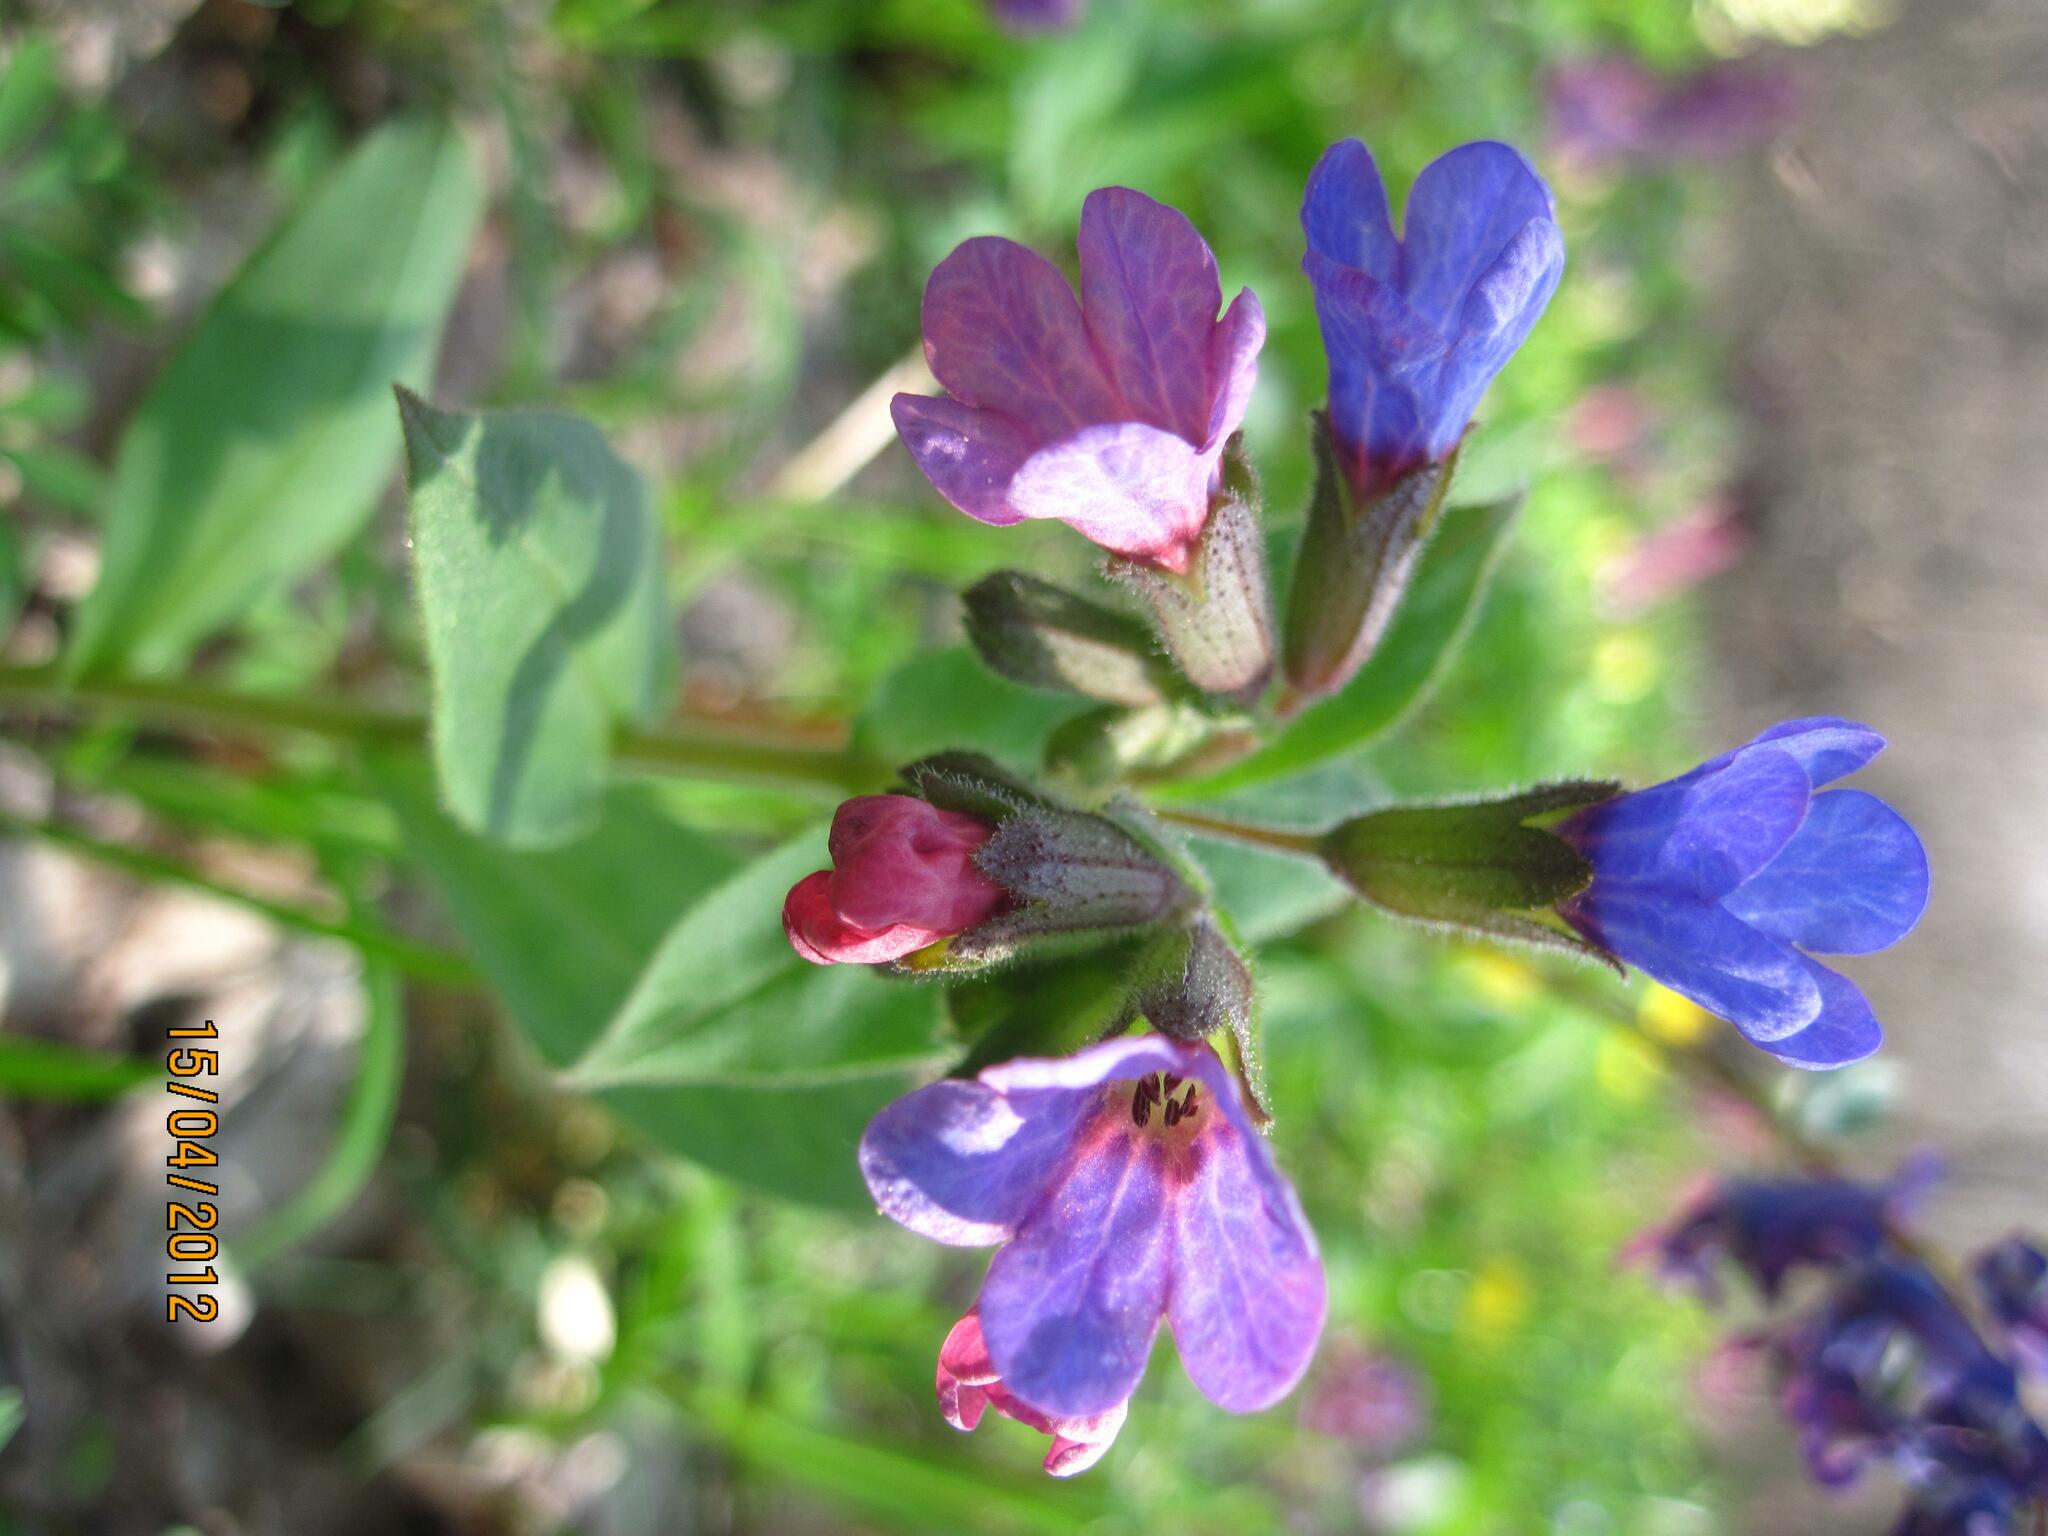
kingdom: Plantae
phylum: Tracheophyta
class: Magnoliopsida
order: Boraginales
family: Boraginaceae
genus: Pulmonaria
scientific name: Pulmonaria obscura
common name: Suffolk lungwort
